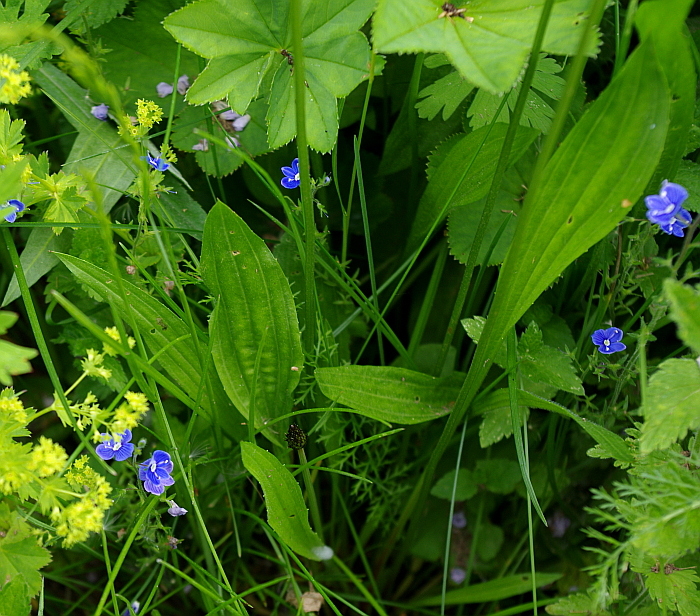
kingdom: Plantae
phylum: Tracheophyta
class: Magnoliopsida
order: Lamiales
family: Plantaginaceae
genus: Plantago
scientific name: Plantago lanceolata
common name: Ribwort plantain
